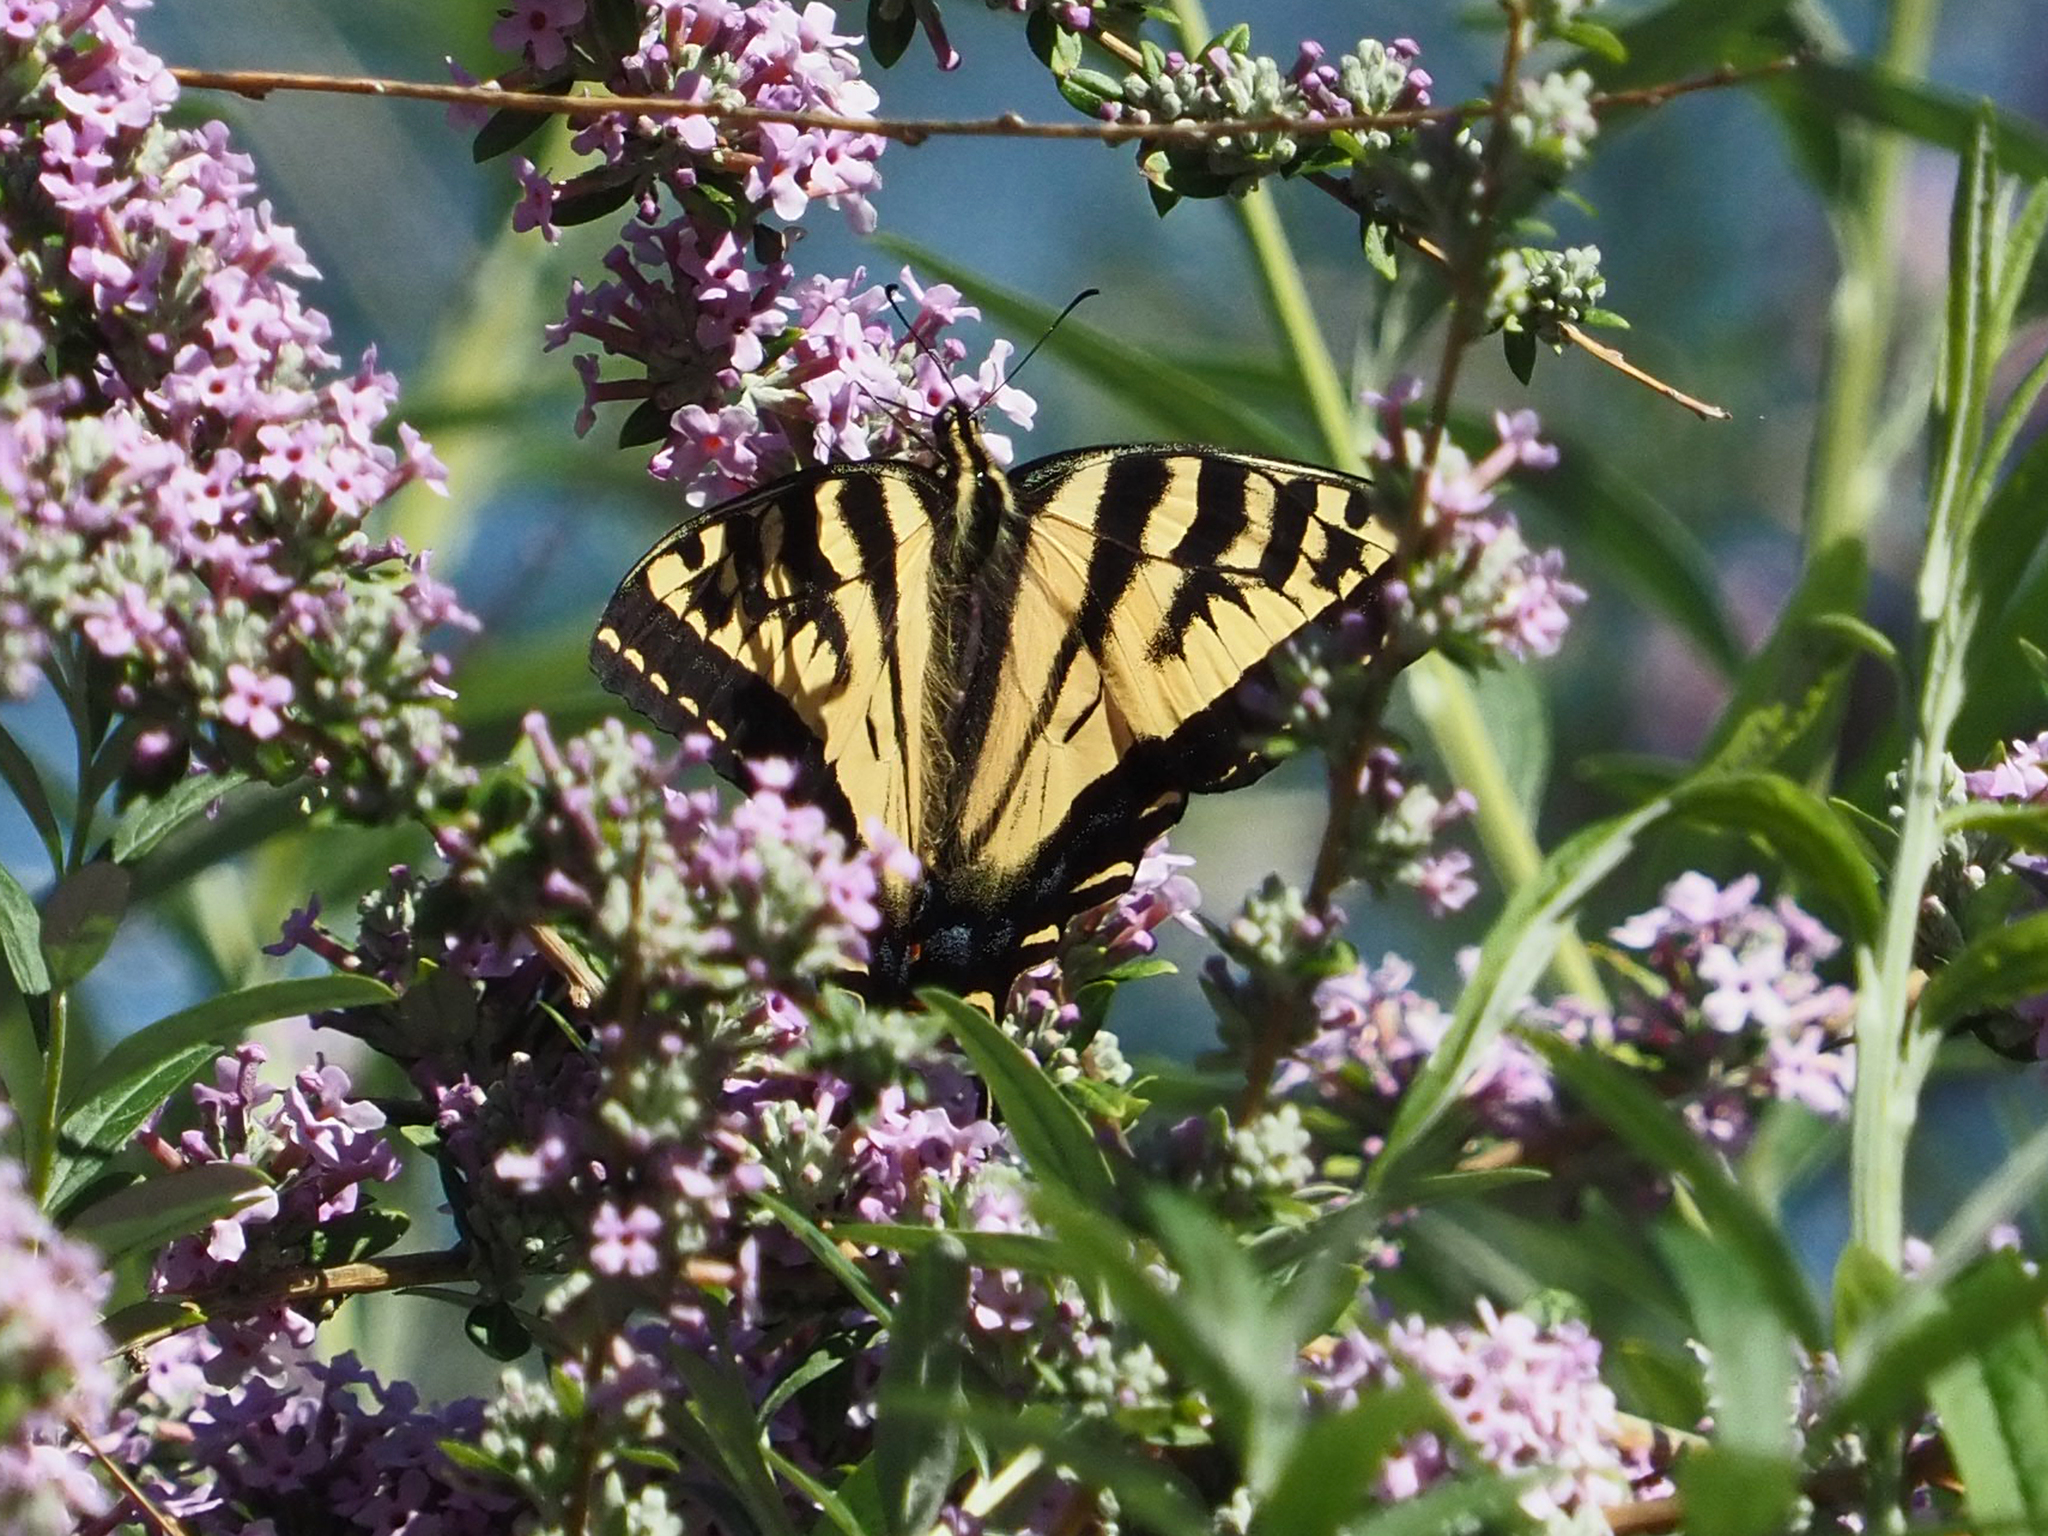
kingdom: Animalia
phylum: Arthropoda
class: Insecta
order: Lepidoptera
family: Papilionidae
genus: Papilio
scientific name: Papilio rutulus
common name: Western tiger swallowtail
